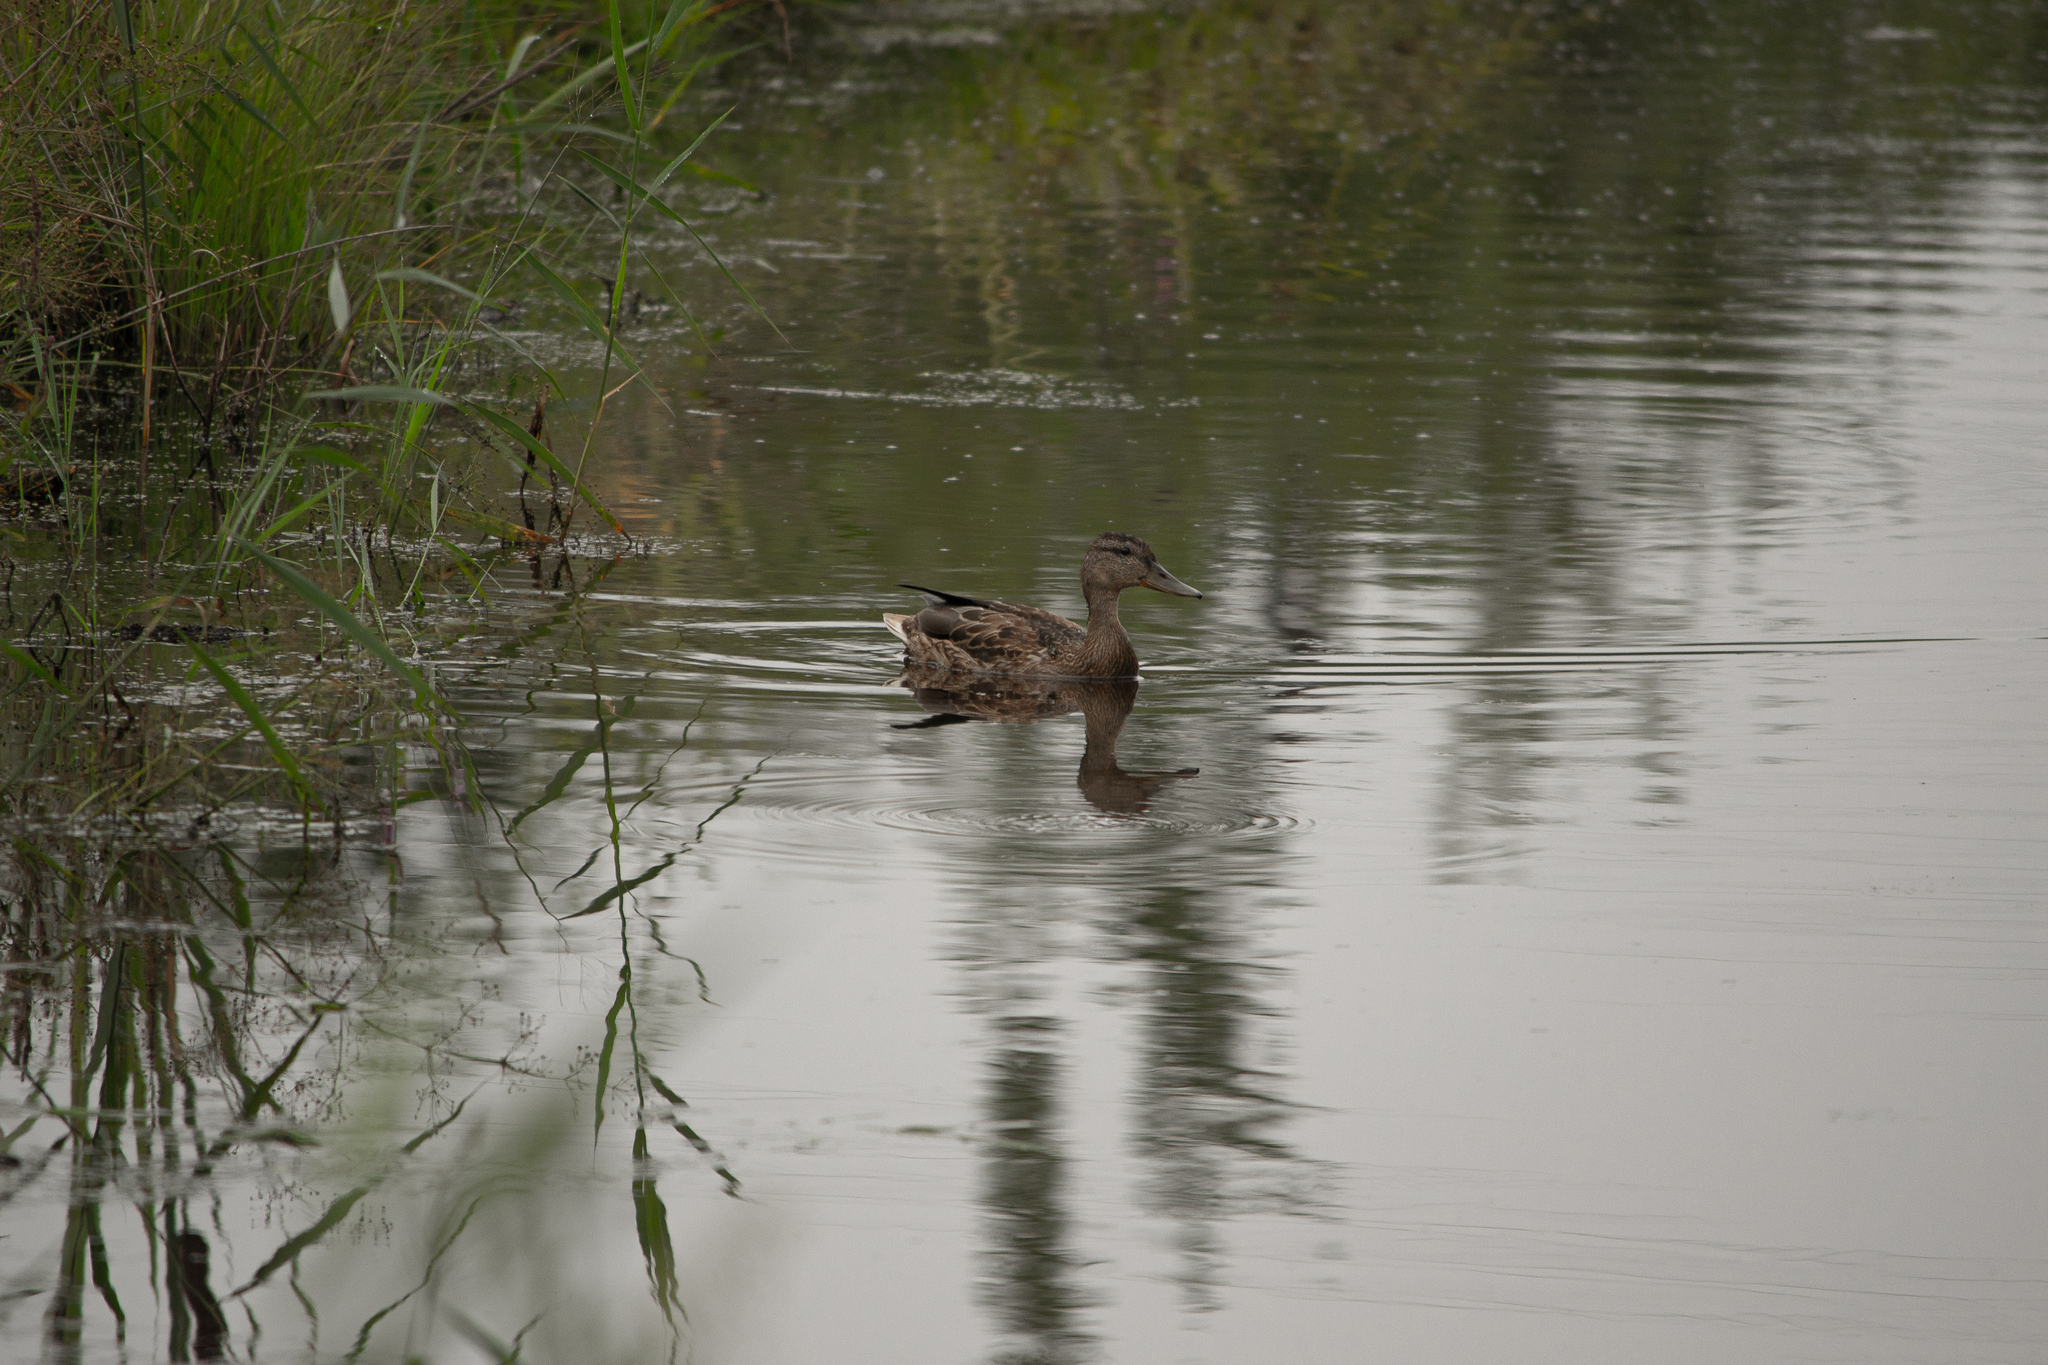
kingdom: Animalia
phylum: Chordata
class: Aves
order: Anseriformes
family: Anatidae
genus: Anas
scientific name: Anas platyrhynchos
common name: Mallard
